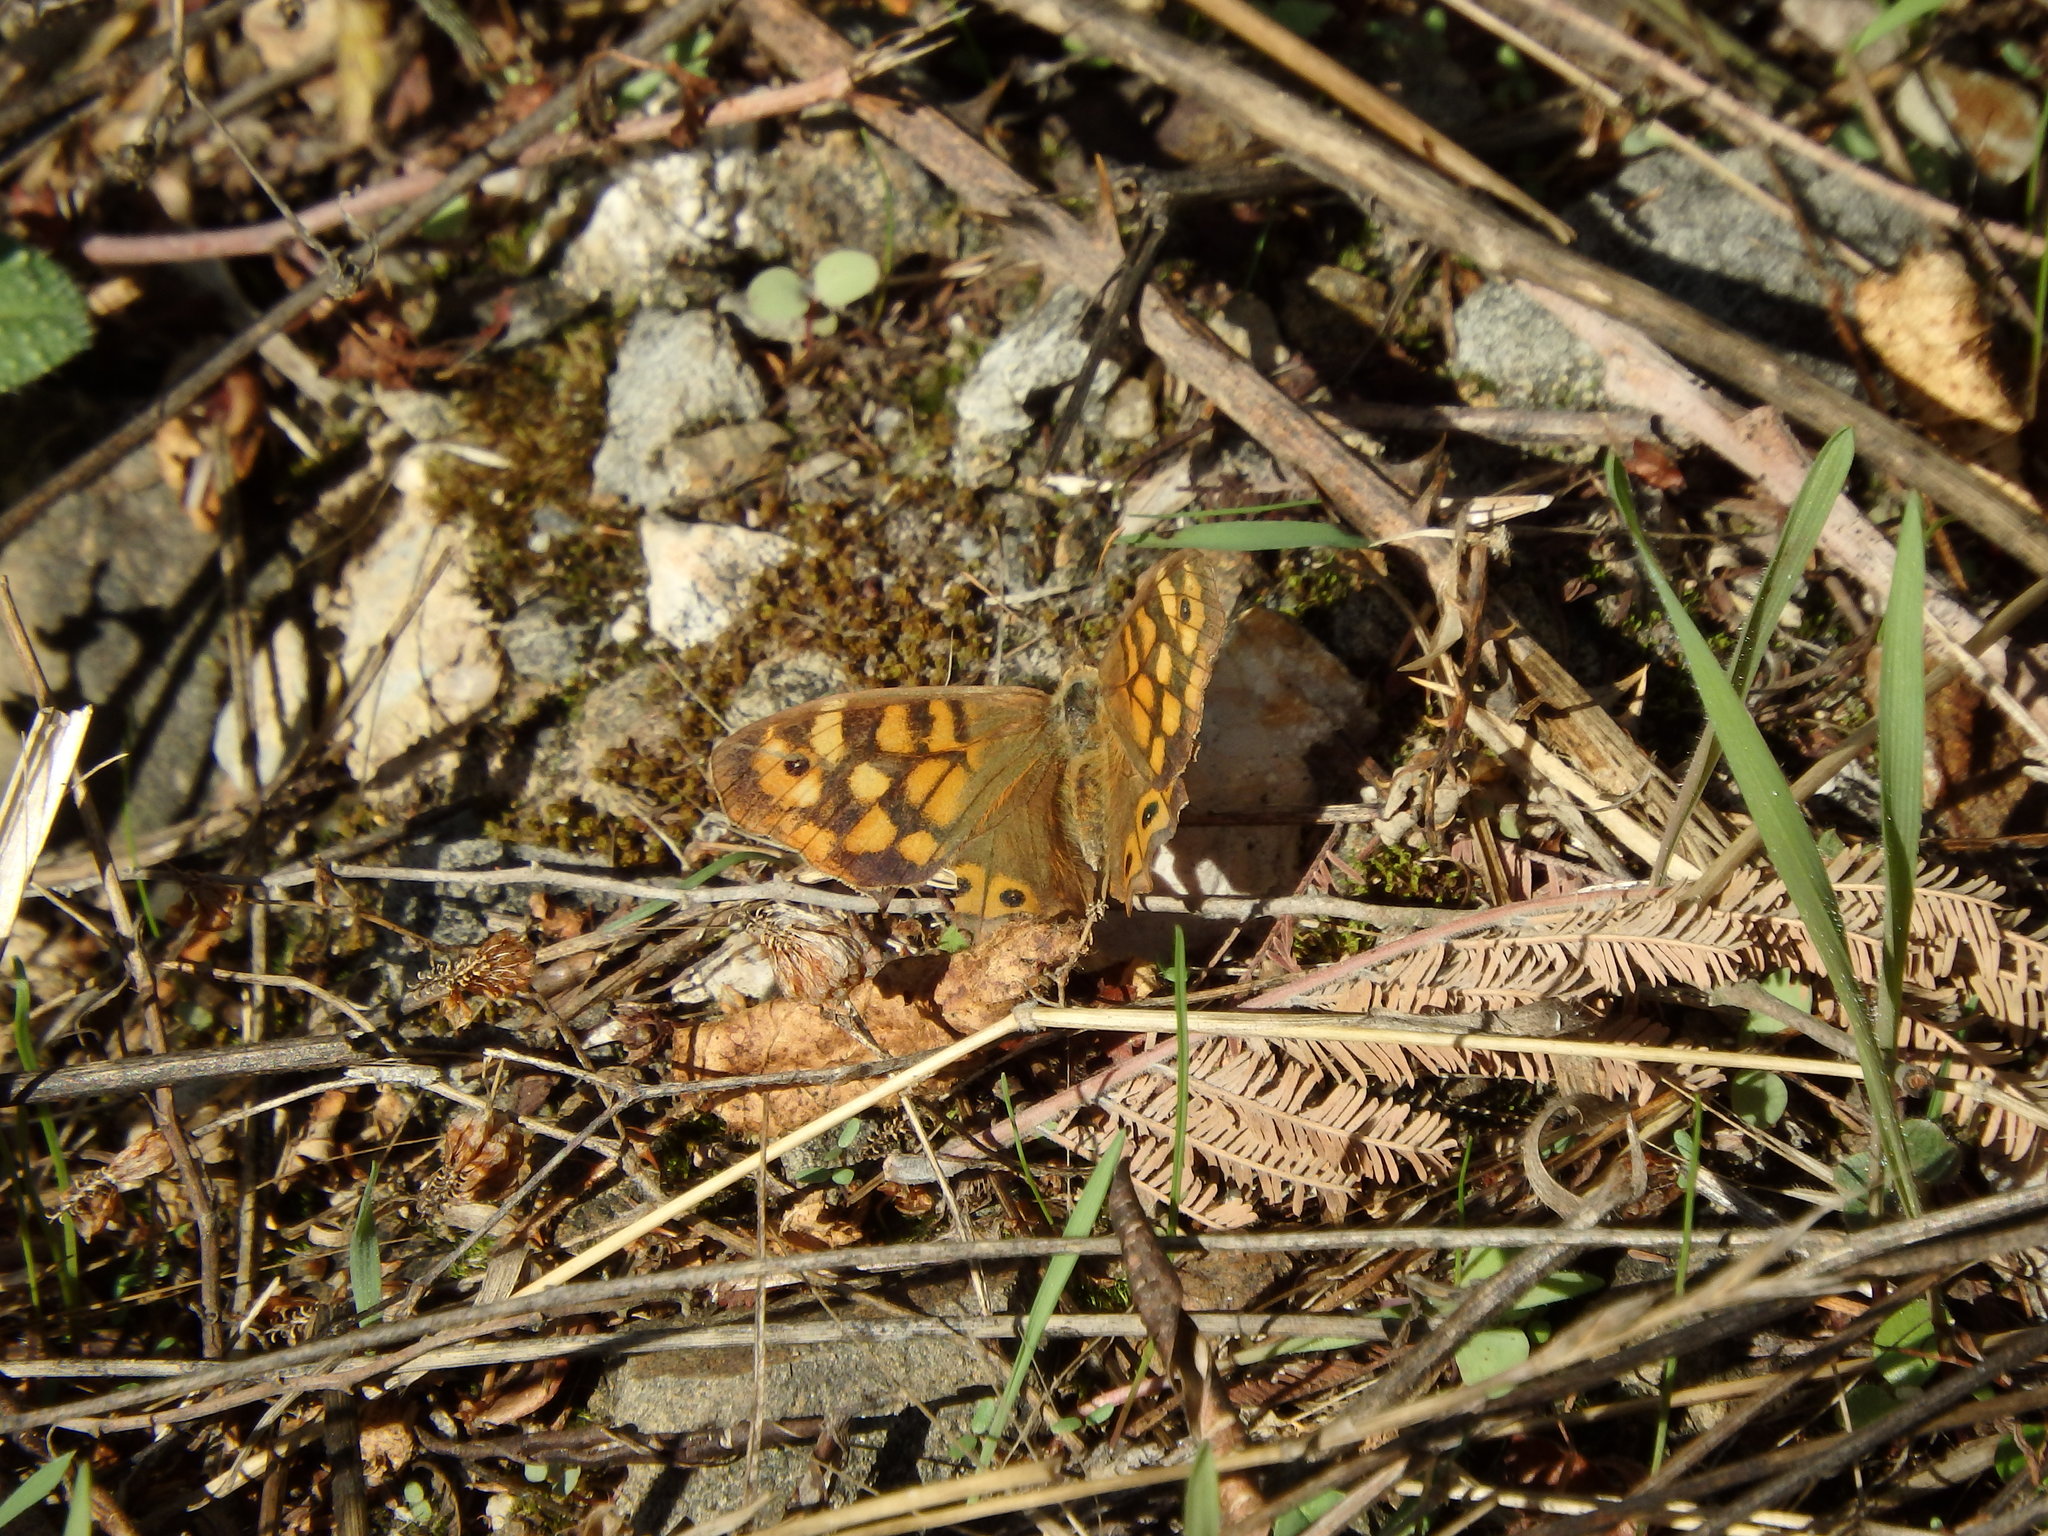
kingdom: Animalia
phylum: Arthropoda
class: Insecta
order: Lepidoptera
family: Nymphalidae
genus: Pararge
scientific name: Pararge aegeria
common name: Speckled wood
